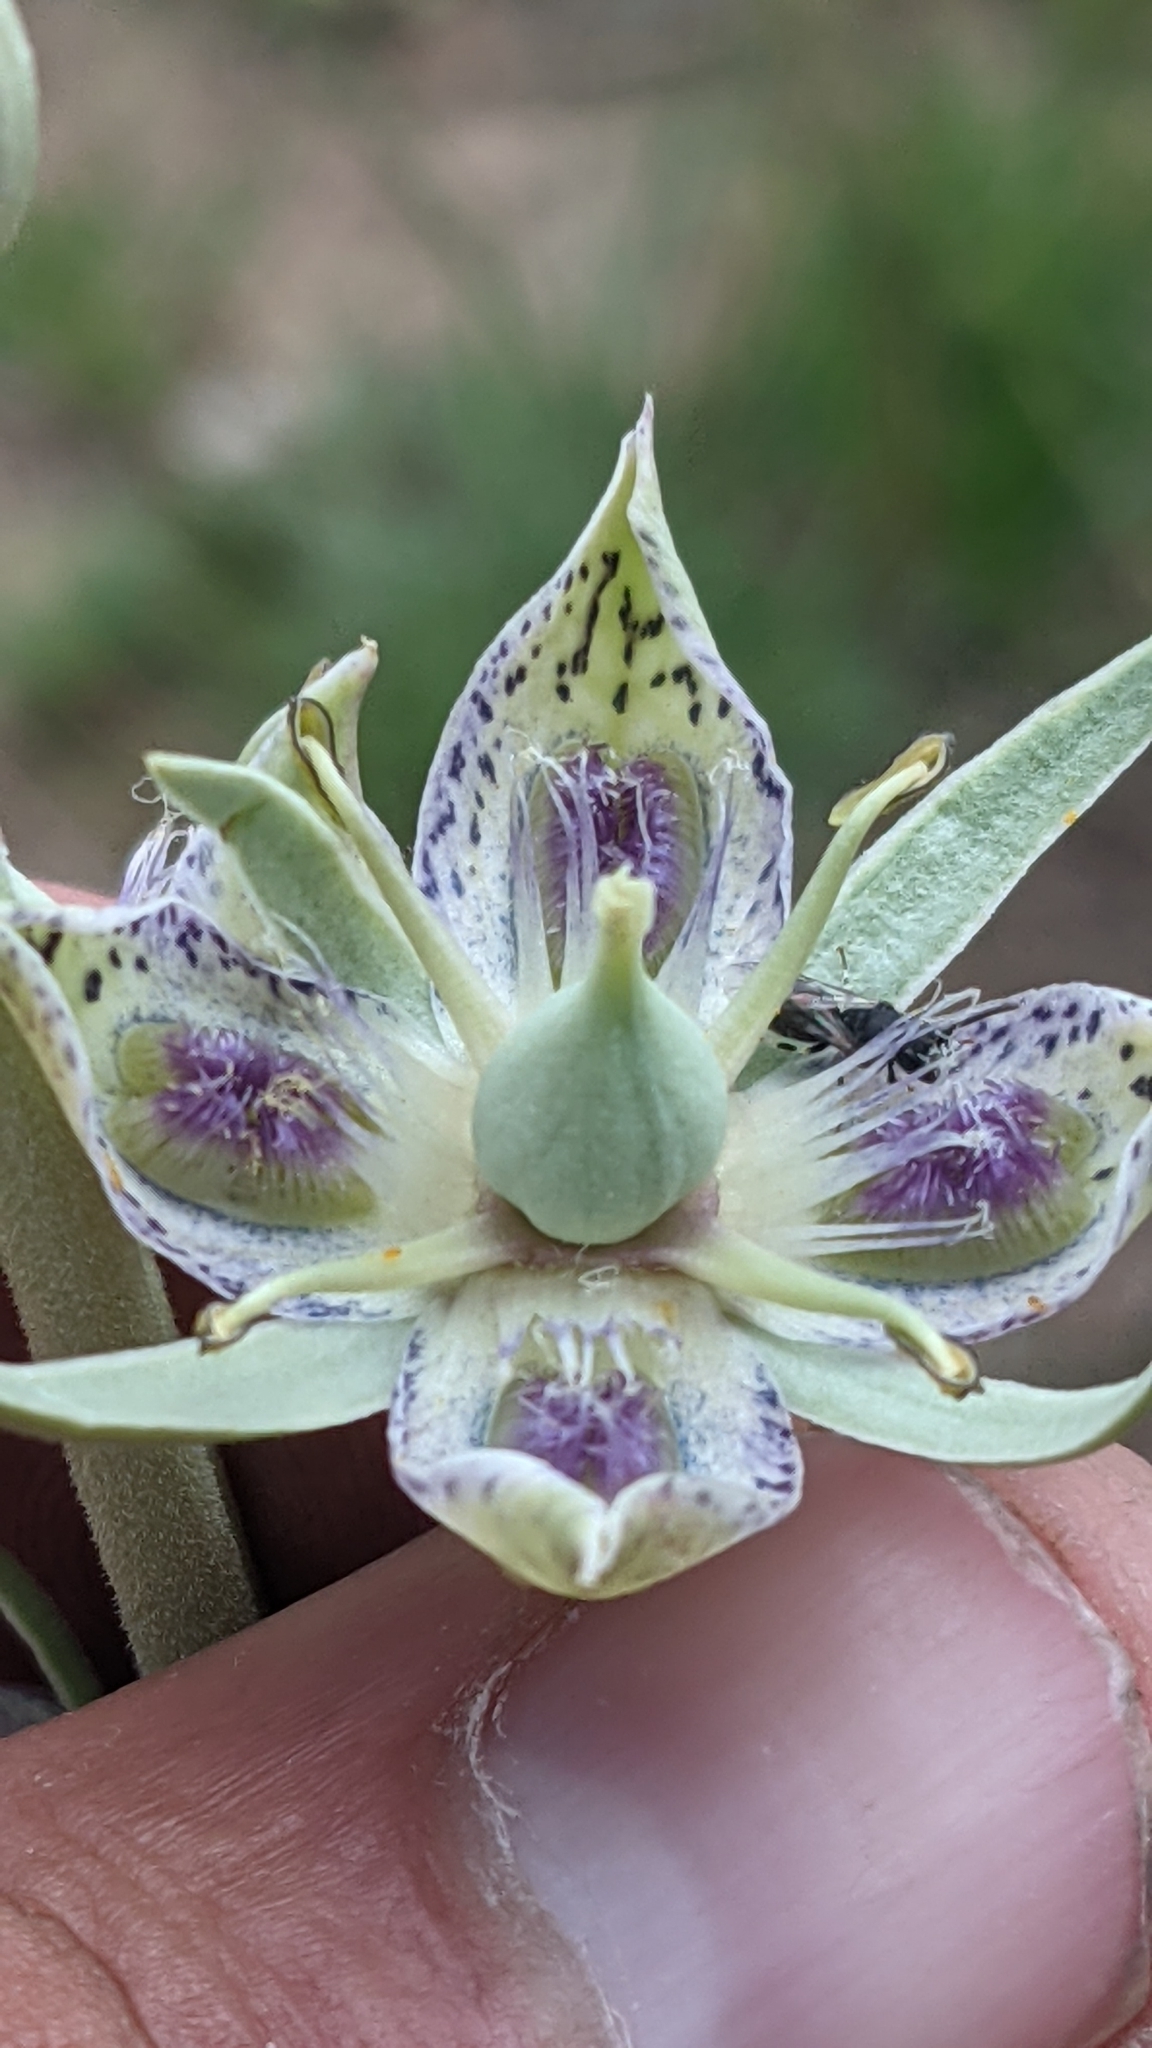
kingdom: Plantae
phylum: Tracheophyta
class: Magnoliopsida
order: Gentianales
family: Gentianaceae
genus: Frasera
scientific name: Frasera speciosa
